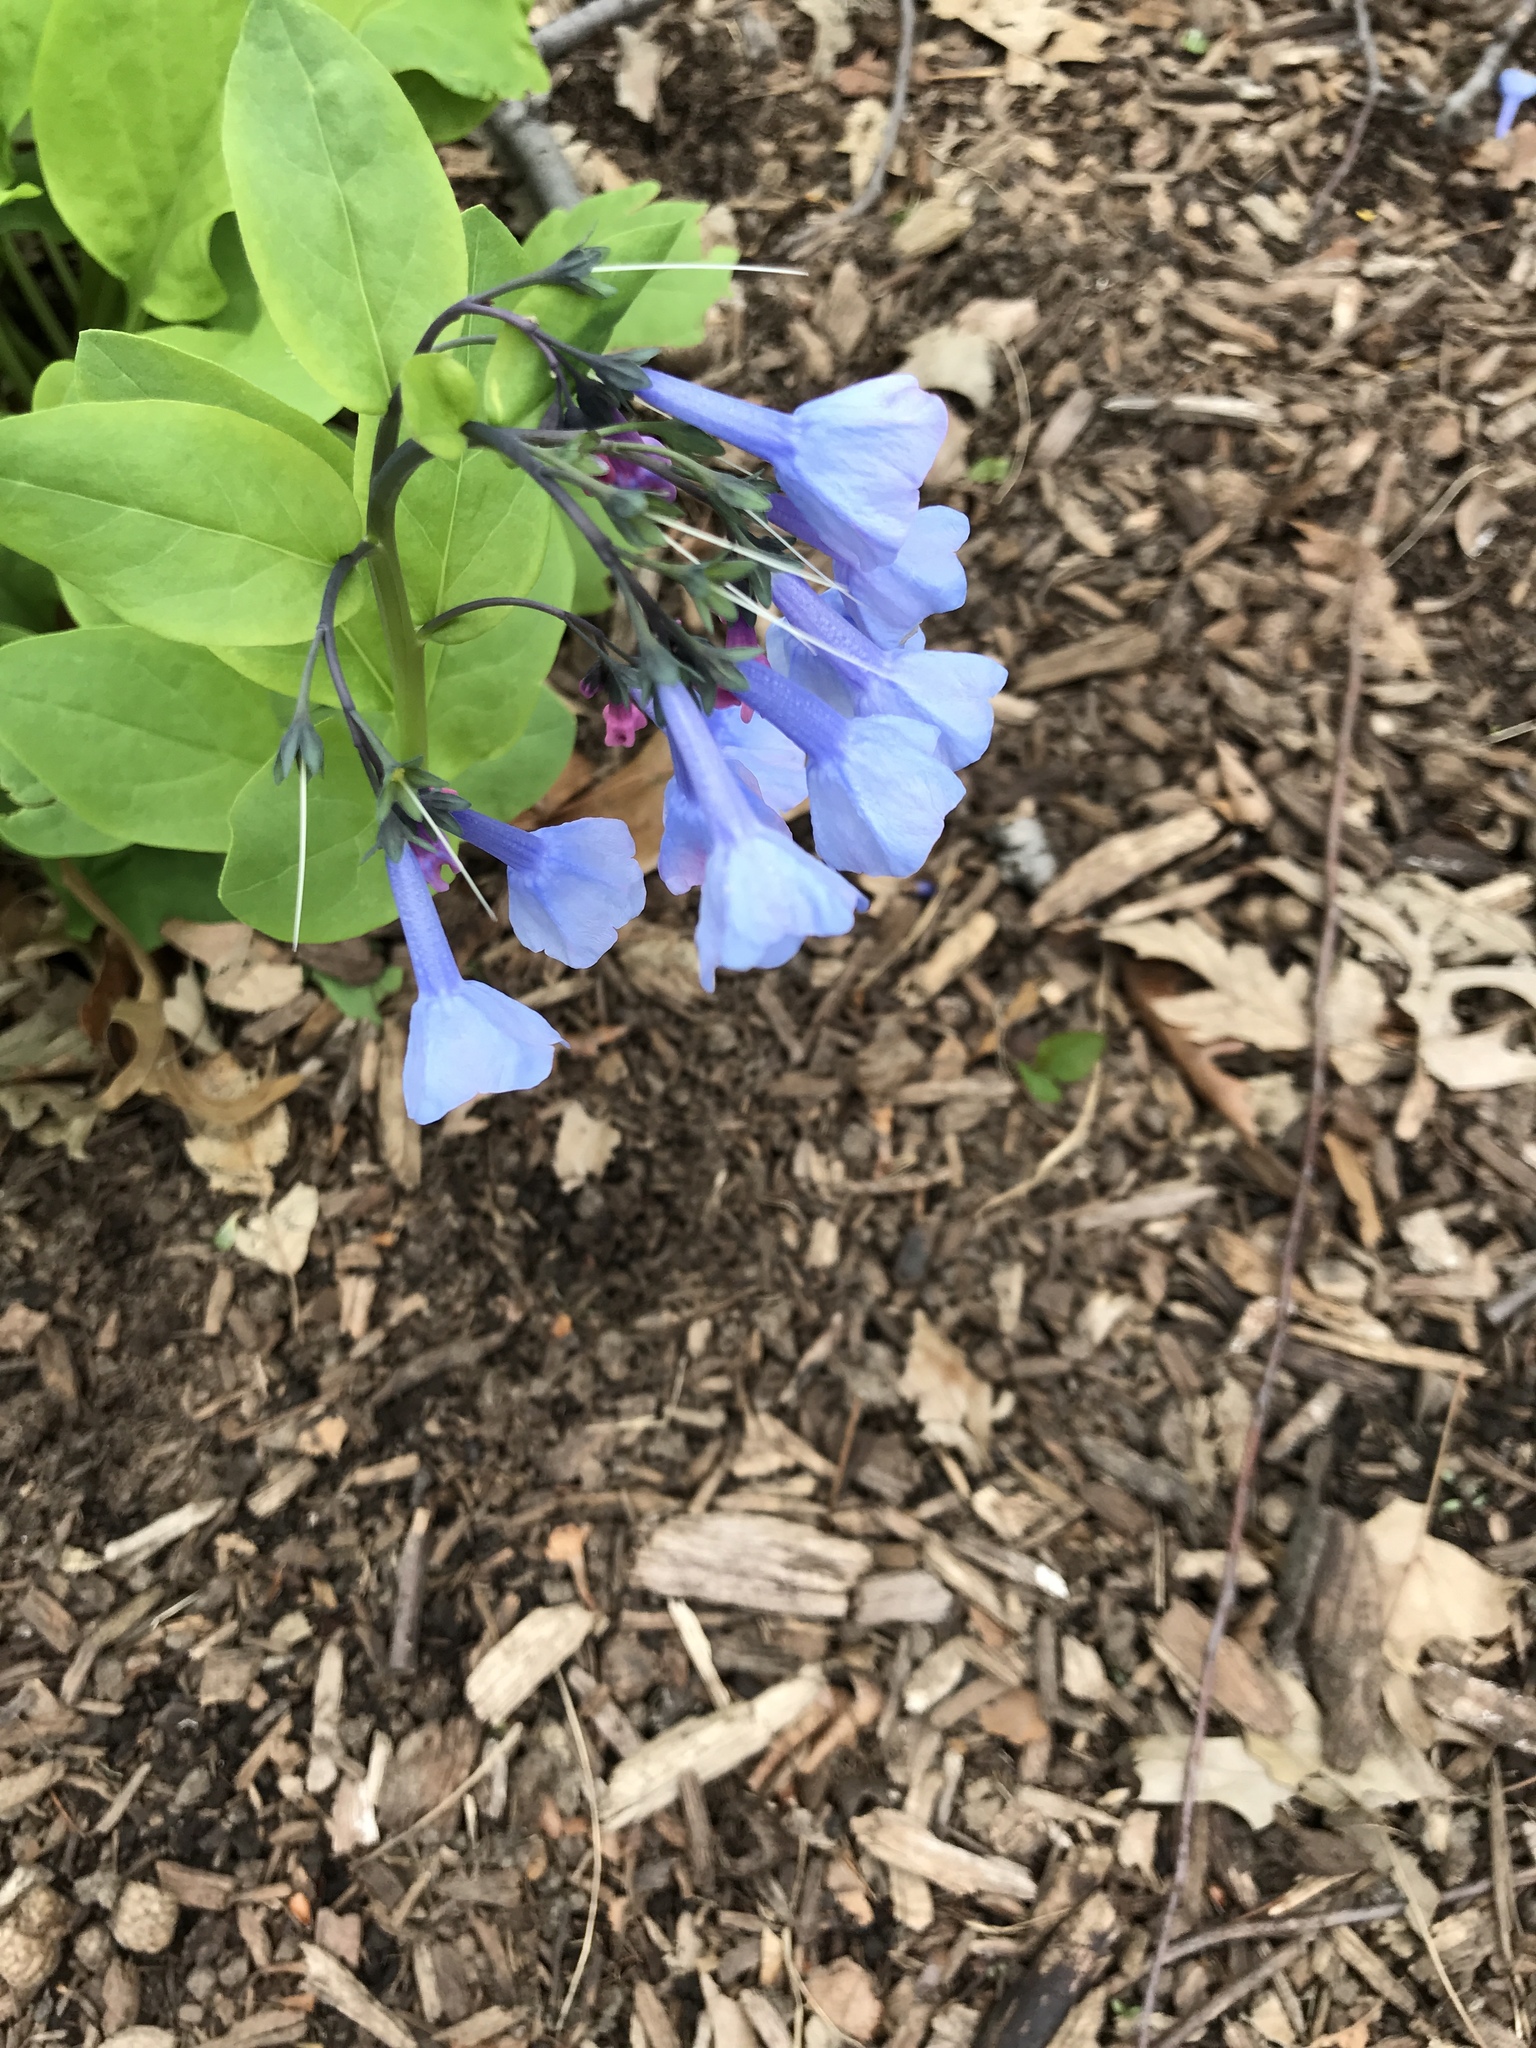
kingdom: Plantae
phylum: Tracheophyta
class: Magnoliopsida
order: Boraginales
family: Boraginaceae
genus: Mertensia
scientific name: Mertensia virginica
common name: Virginia bluebells
